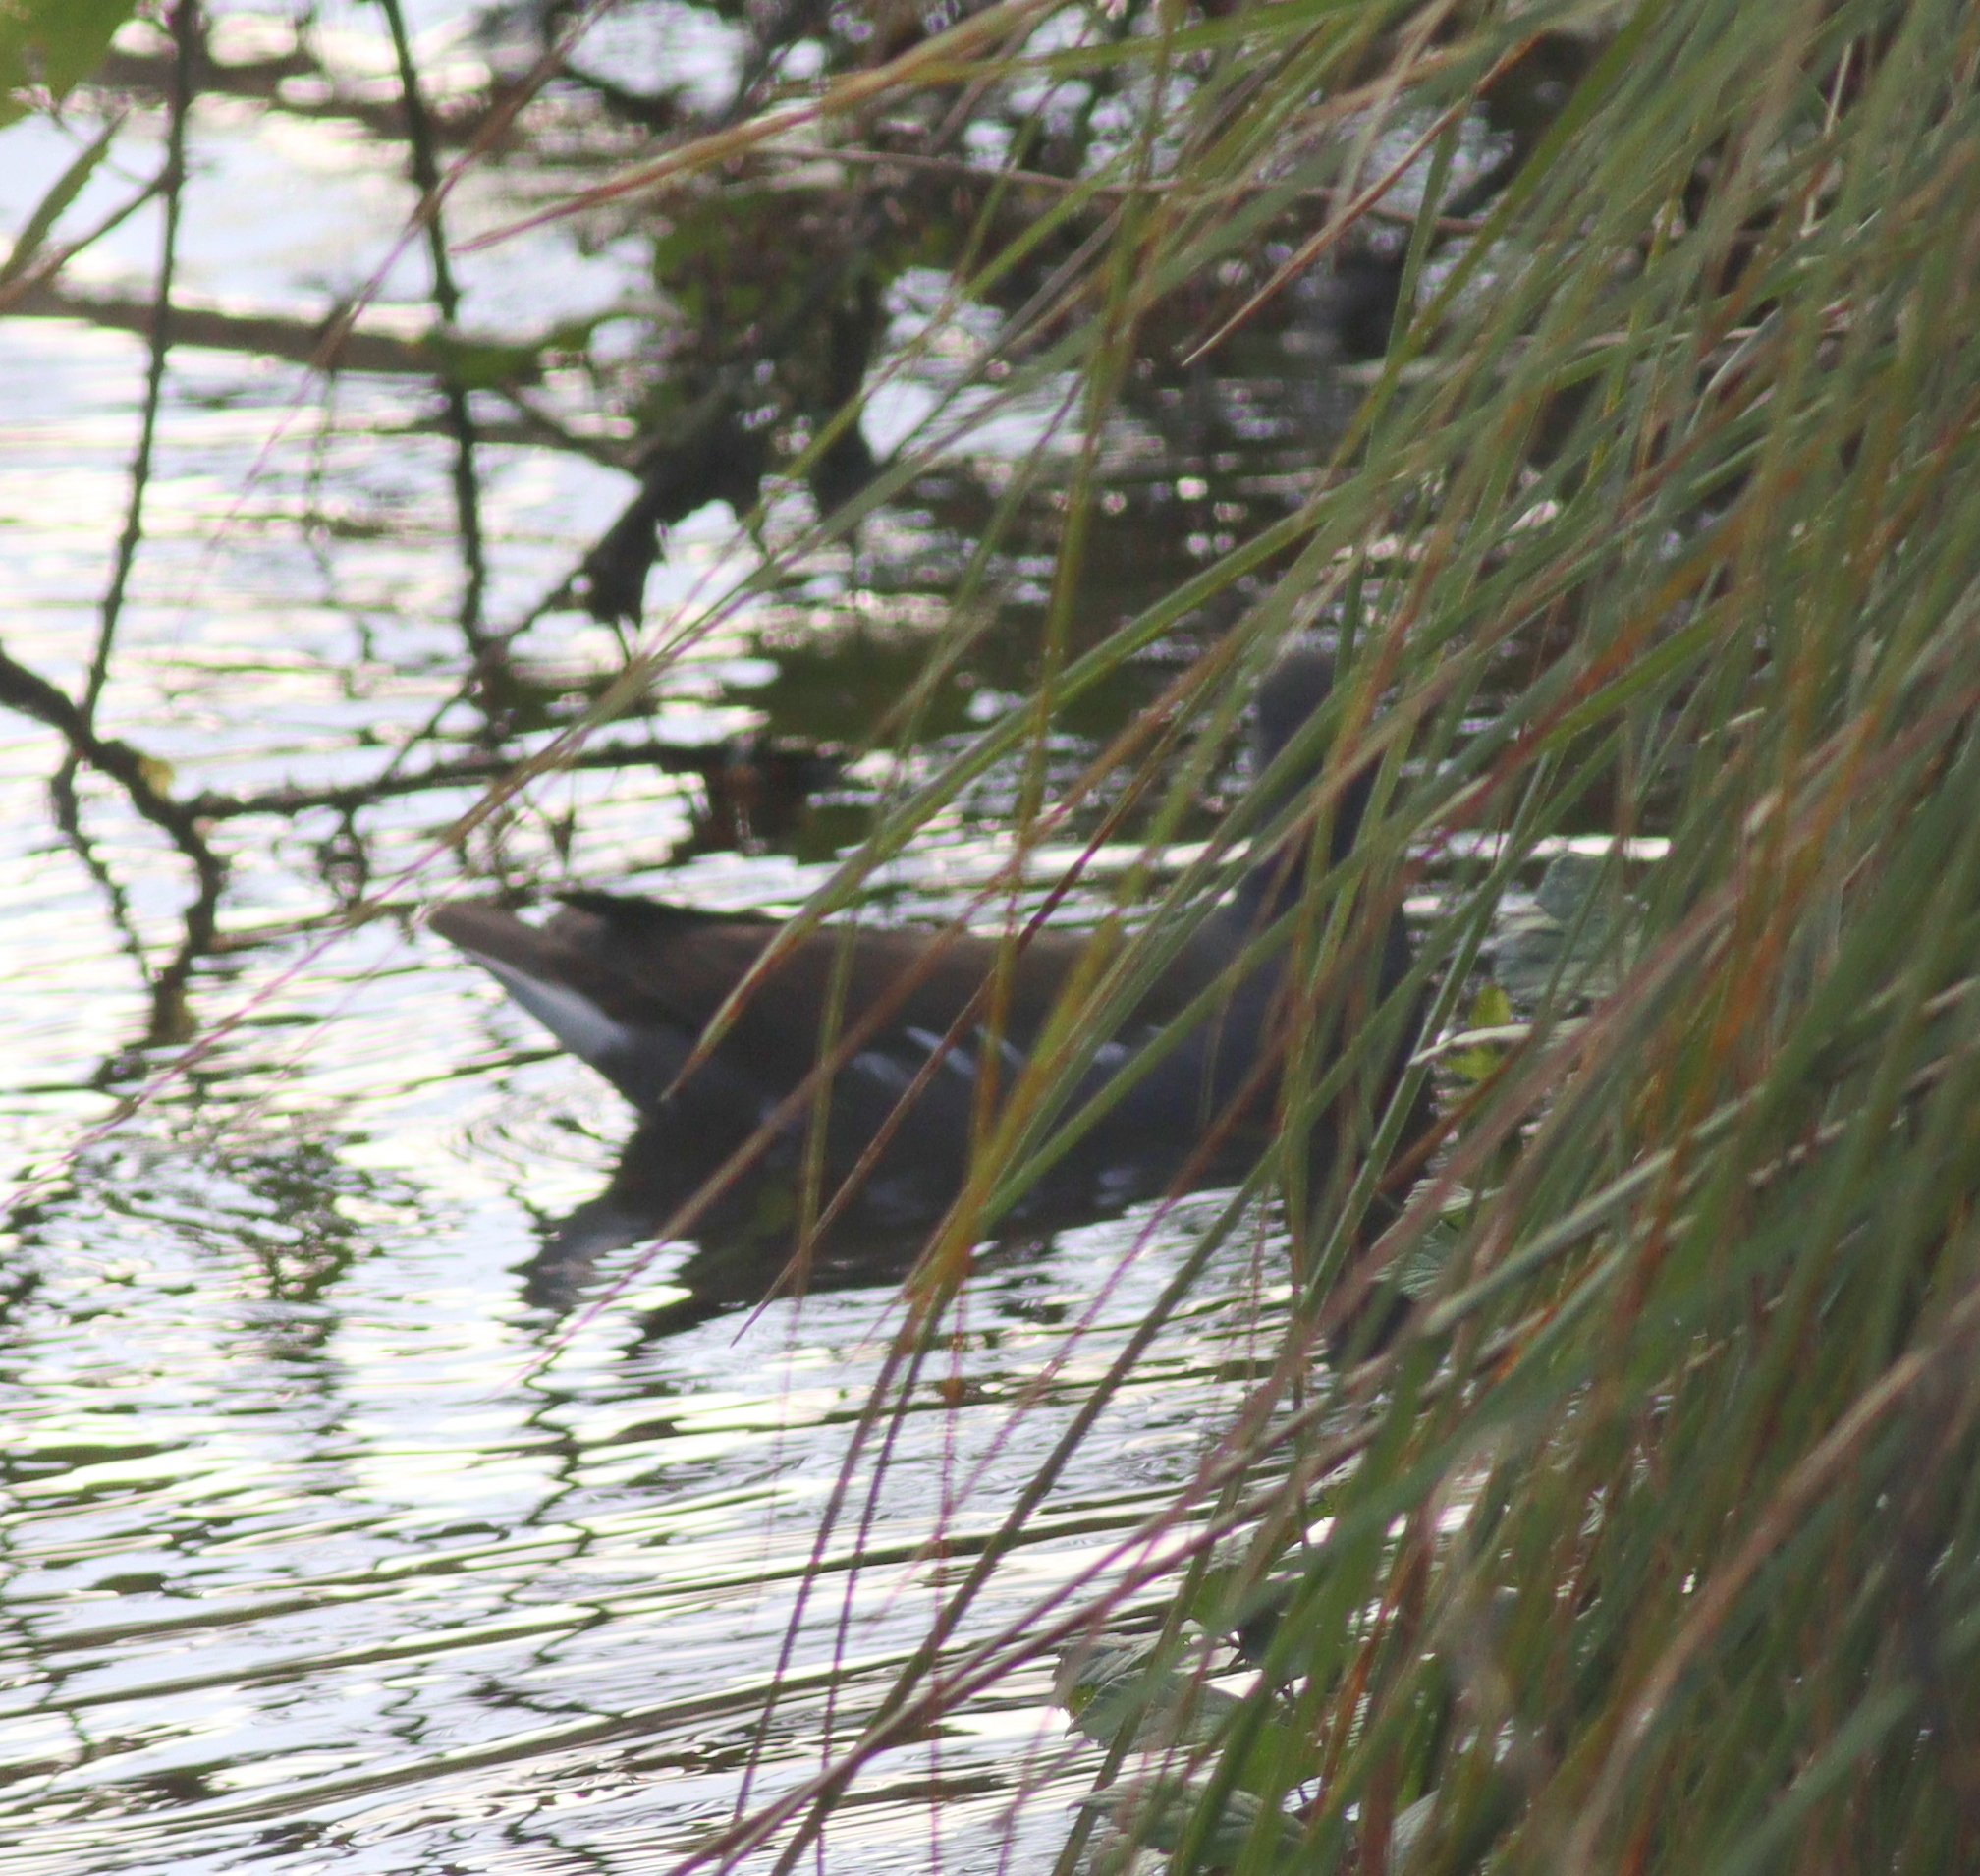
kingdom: Animalia
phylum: Chordata
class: Aves
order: Gruiformes
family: Rallidae
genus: Gallinula
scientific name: Gallinula chloropus
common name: Common moorhen
